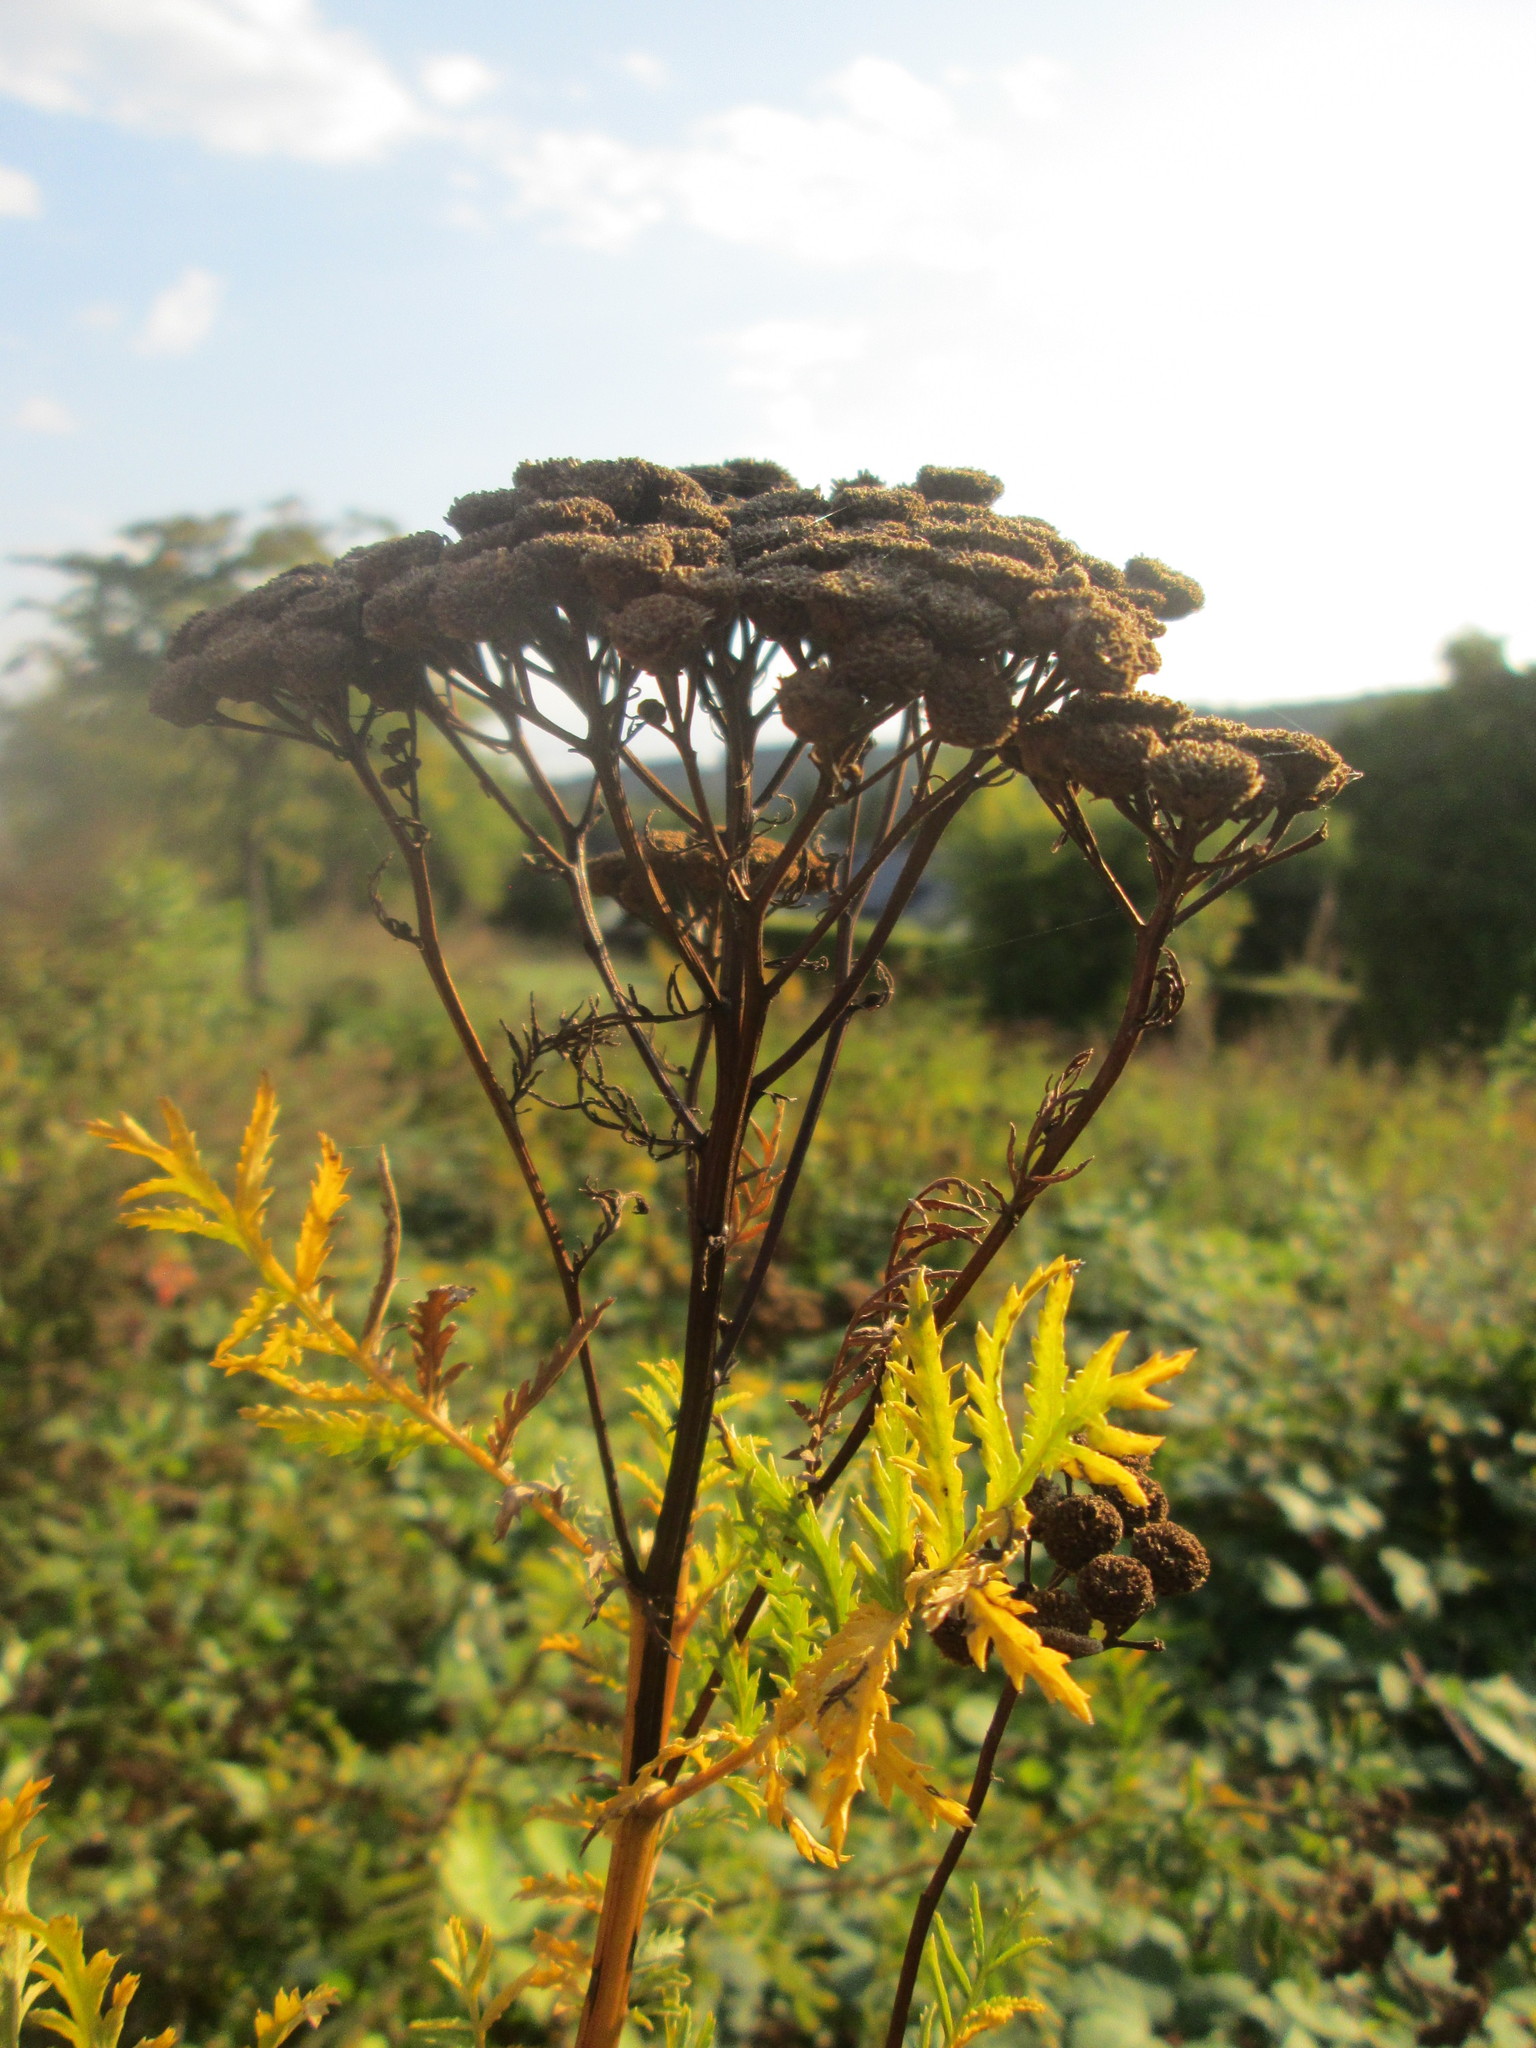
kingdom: Plantae
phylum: Tracheophyta
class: Magnoliopsida
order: Asterales
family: Asteraceae
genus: Tanacetum
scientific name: Tanacetum vulgare
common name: Common tansy
